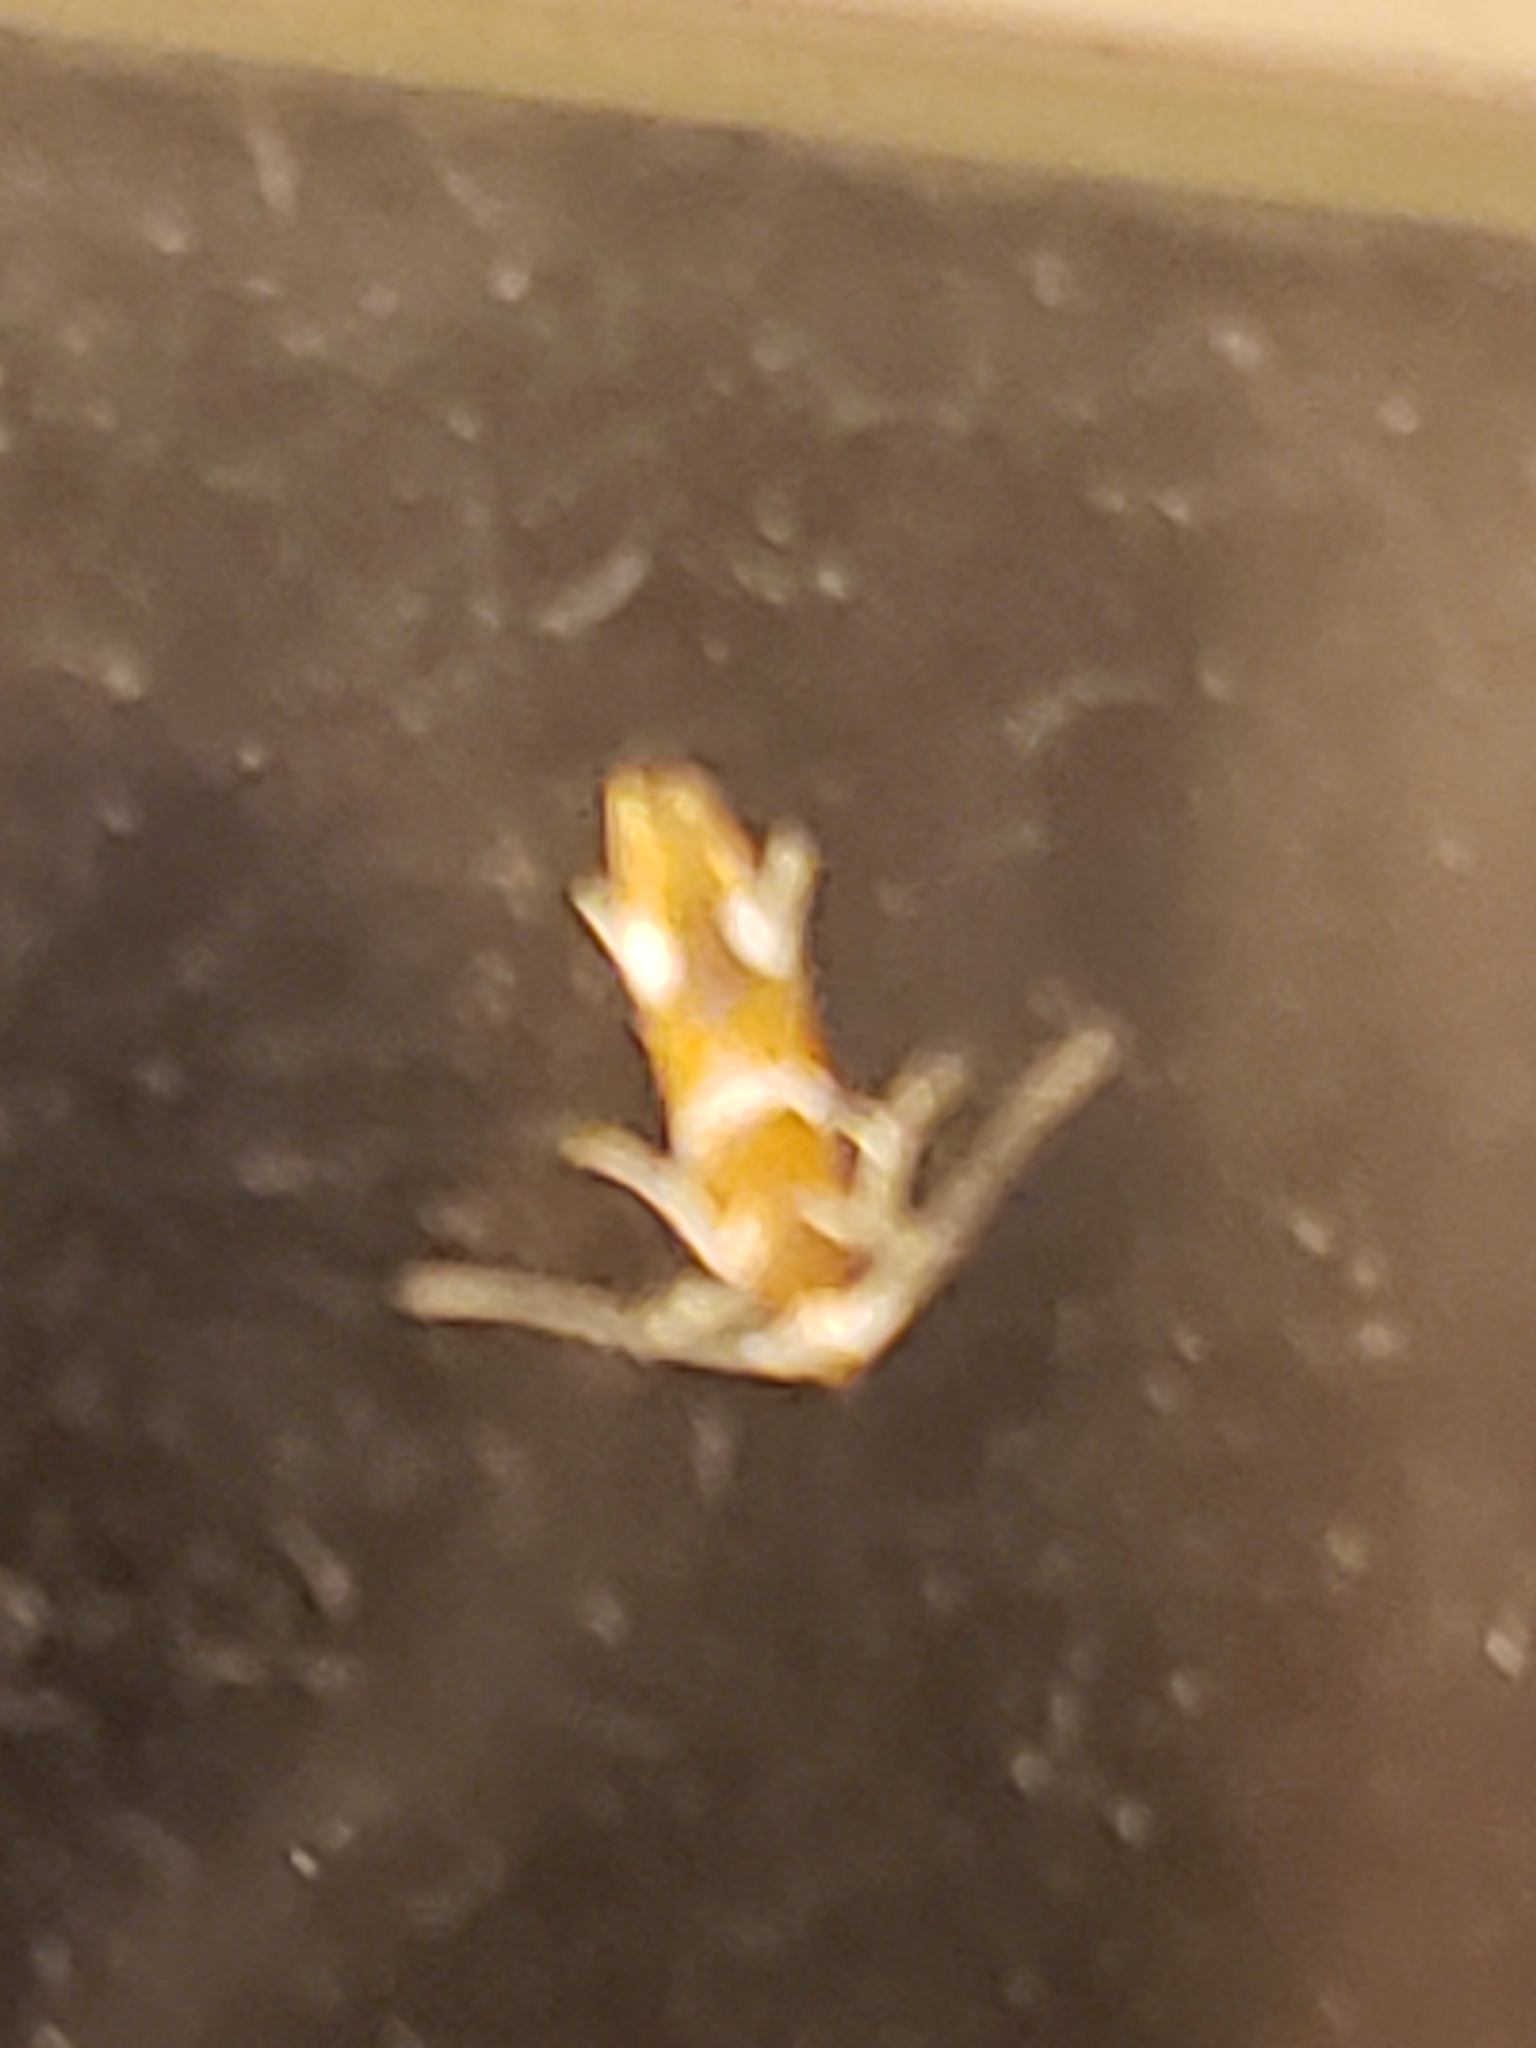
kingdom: Animalia
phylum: Arthropoda
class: Insecta
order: Lepidoptera
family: Oecophoridae
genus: Promalactis
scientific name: Promalactis suzukiella
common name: Moth
